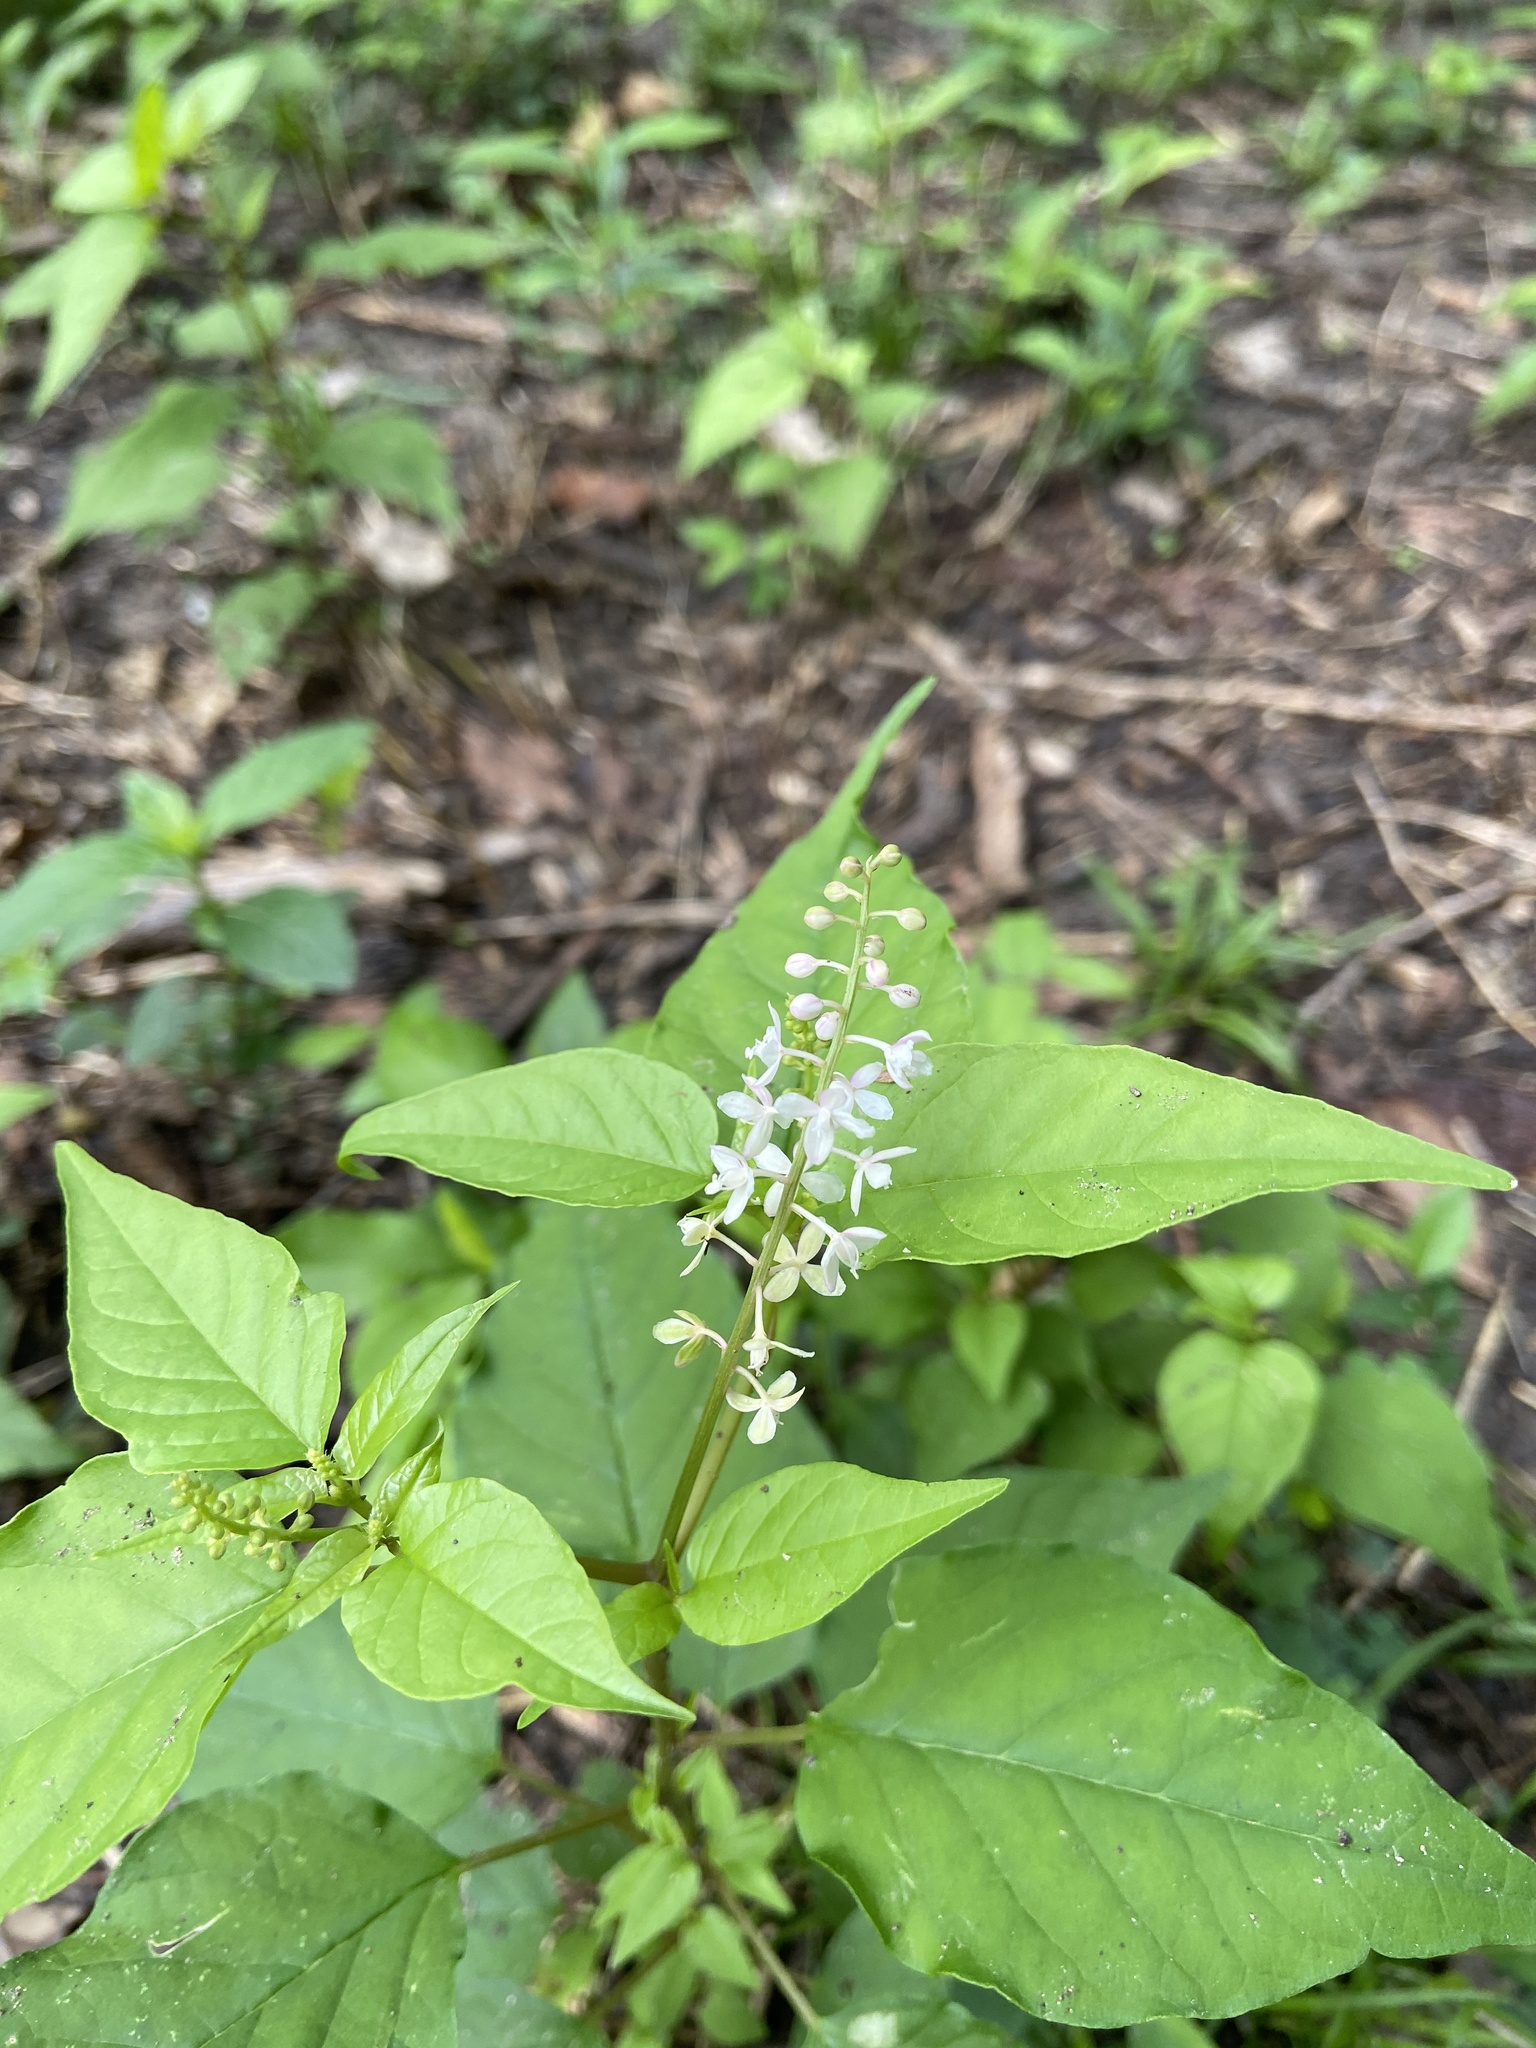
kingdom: Plantae
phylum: Tracheophyta
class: Magnoliopsida
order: Caryophyllales
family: Phytolaccaceae
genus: Rivina
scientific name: Rivina humilis
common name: Rougeplant
